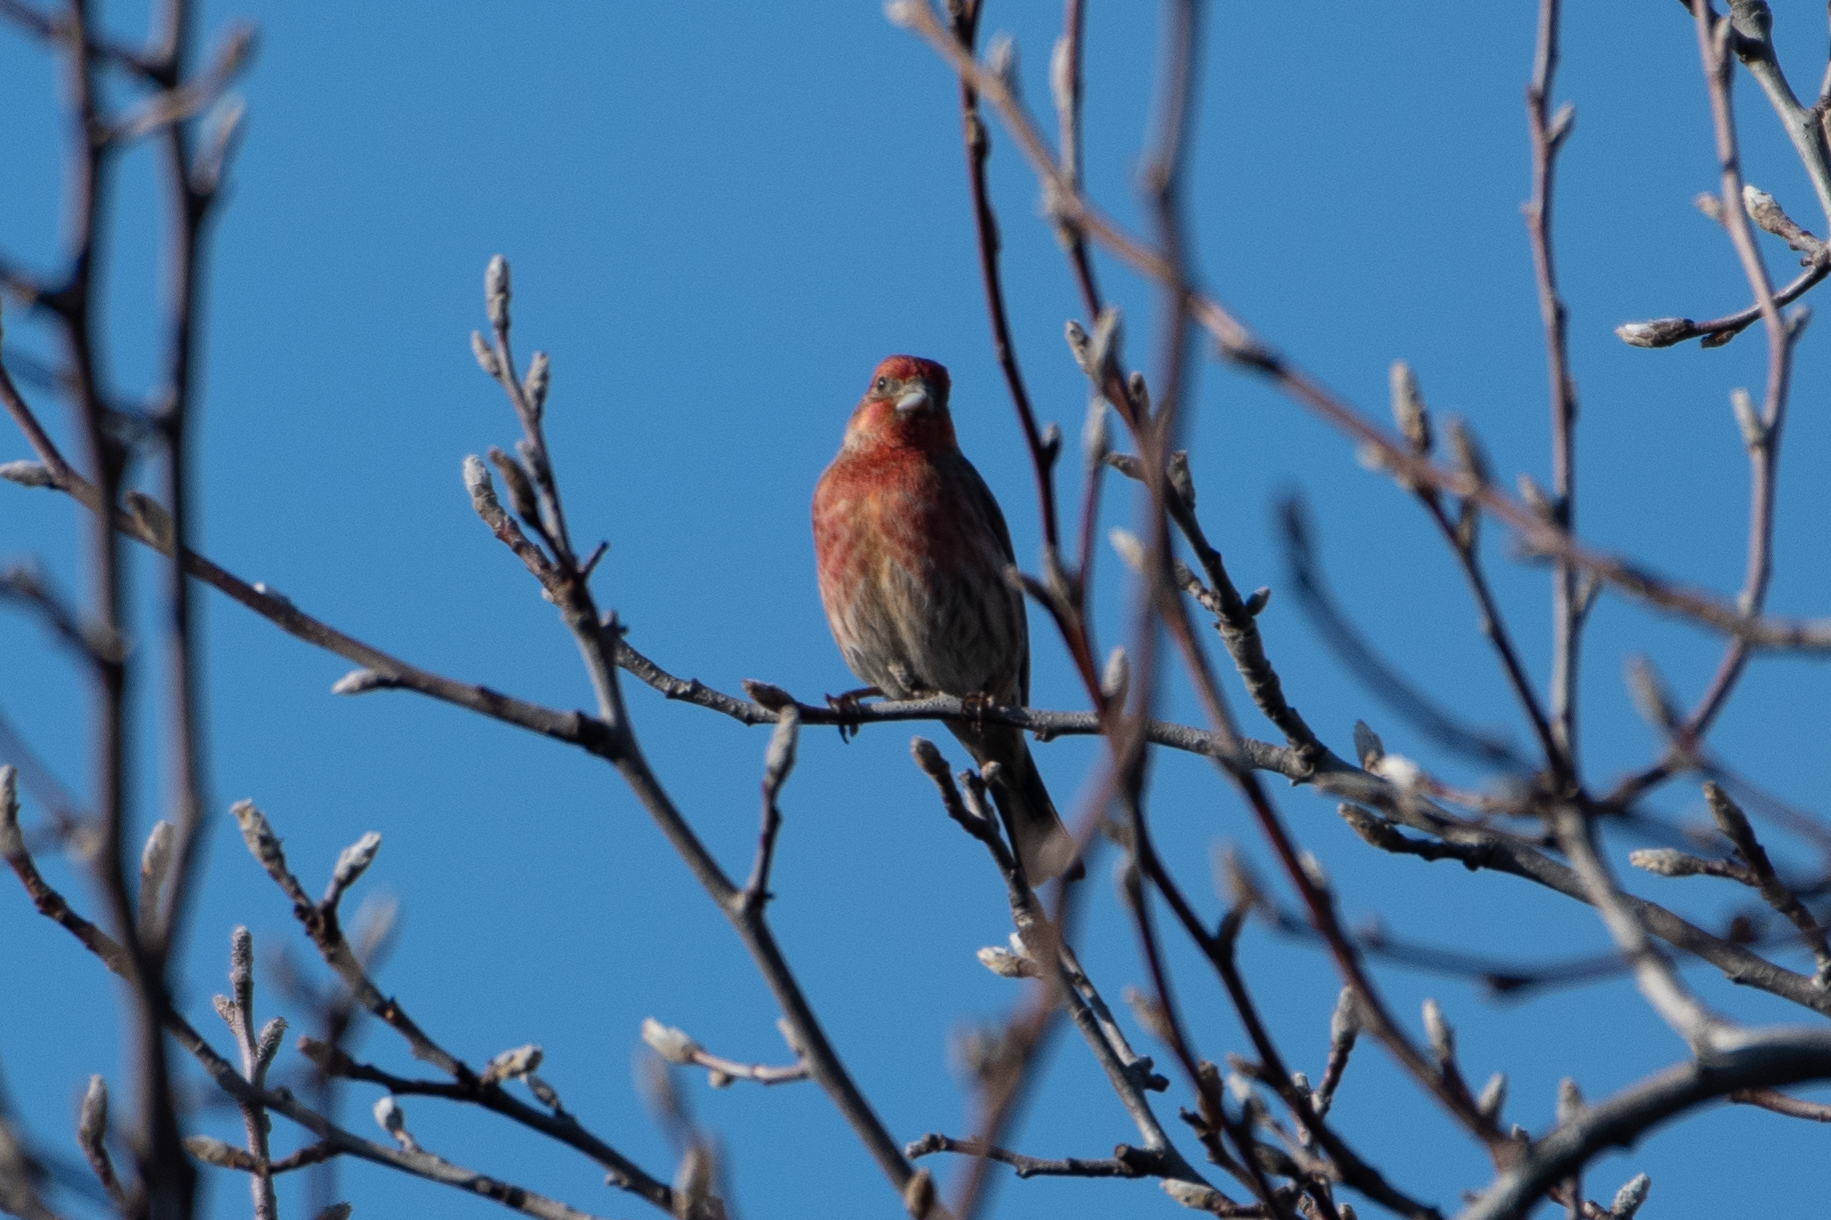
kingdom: Animalia
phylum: Chordata
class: Aves
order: Passeriformes
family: Fringillidae
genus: Haemorhous
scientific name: Haemorhous mexicanus
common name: House finch
